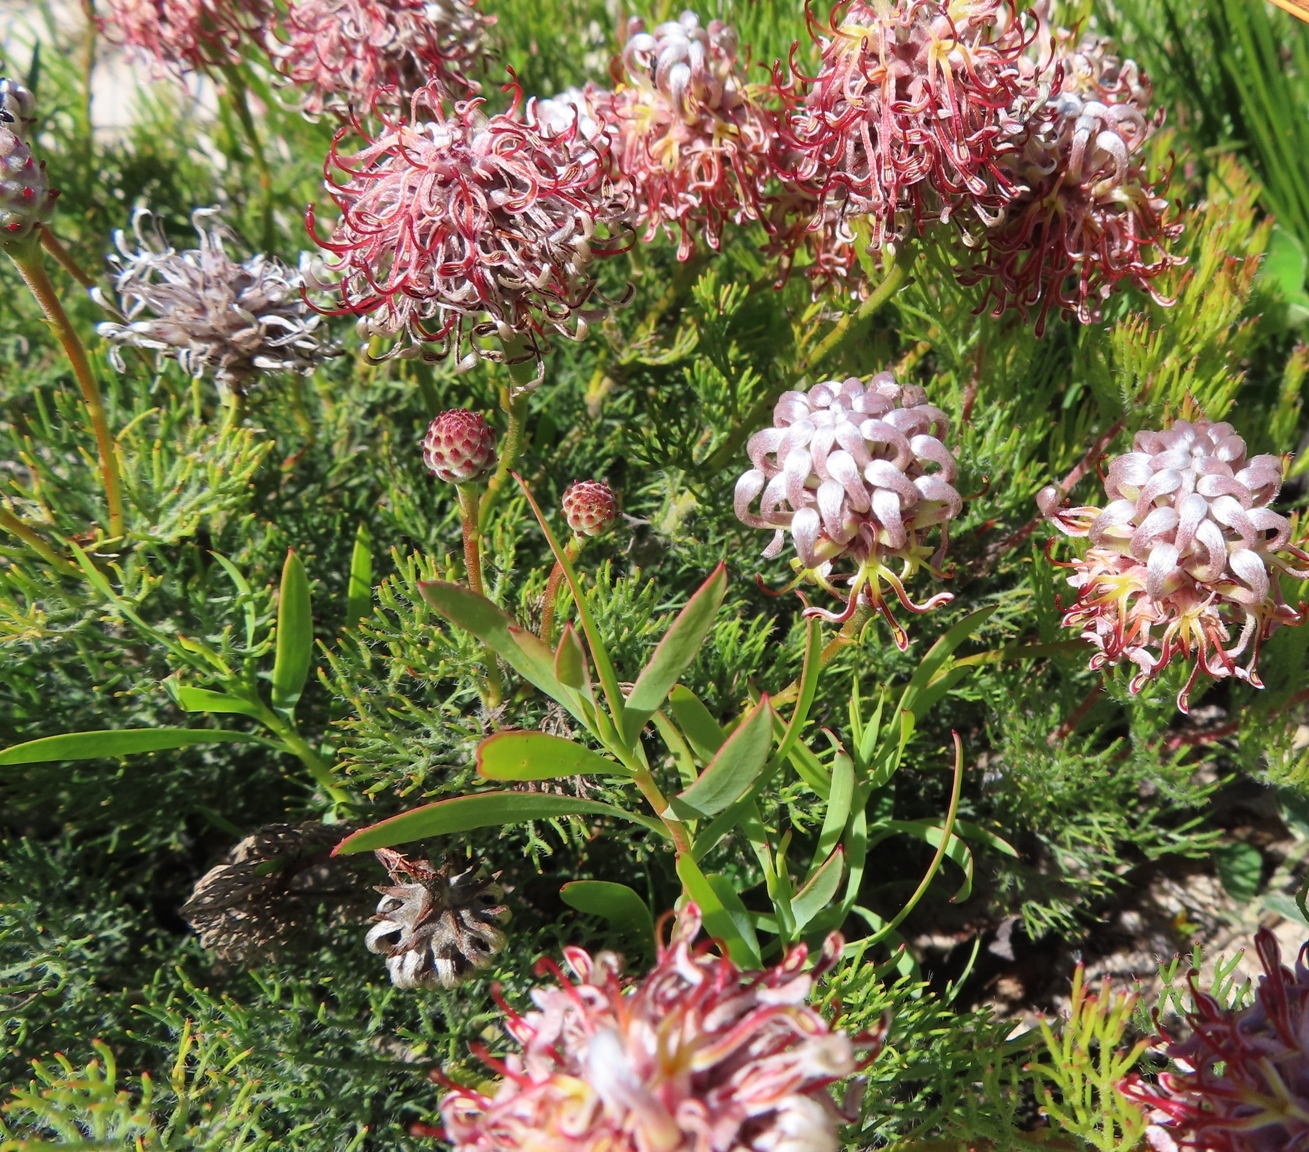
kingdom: Plantae
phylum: Tracheophyta
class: Magnoliopsida
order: Proteales
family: Proteaceae
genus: Serruria
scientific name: Serruria gremialis
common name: Riviersonderend spiderhead
